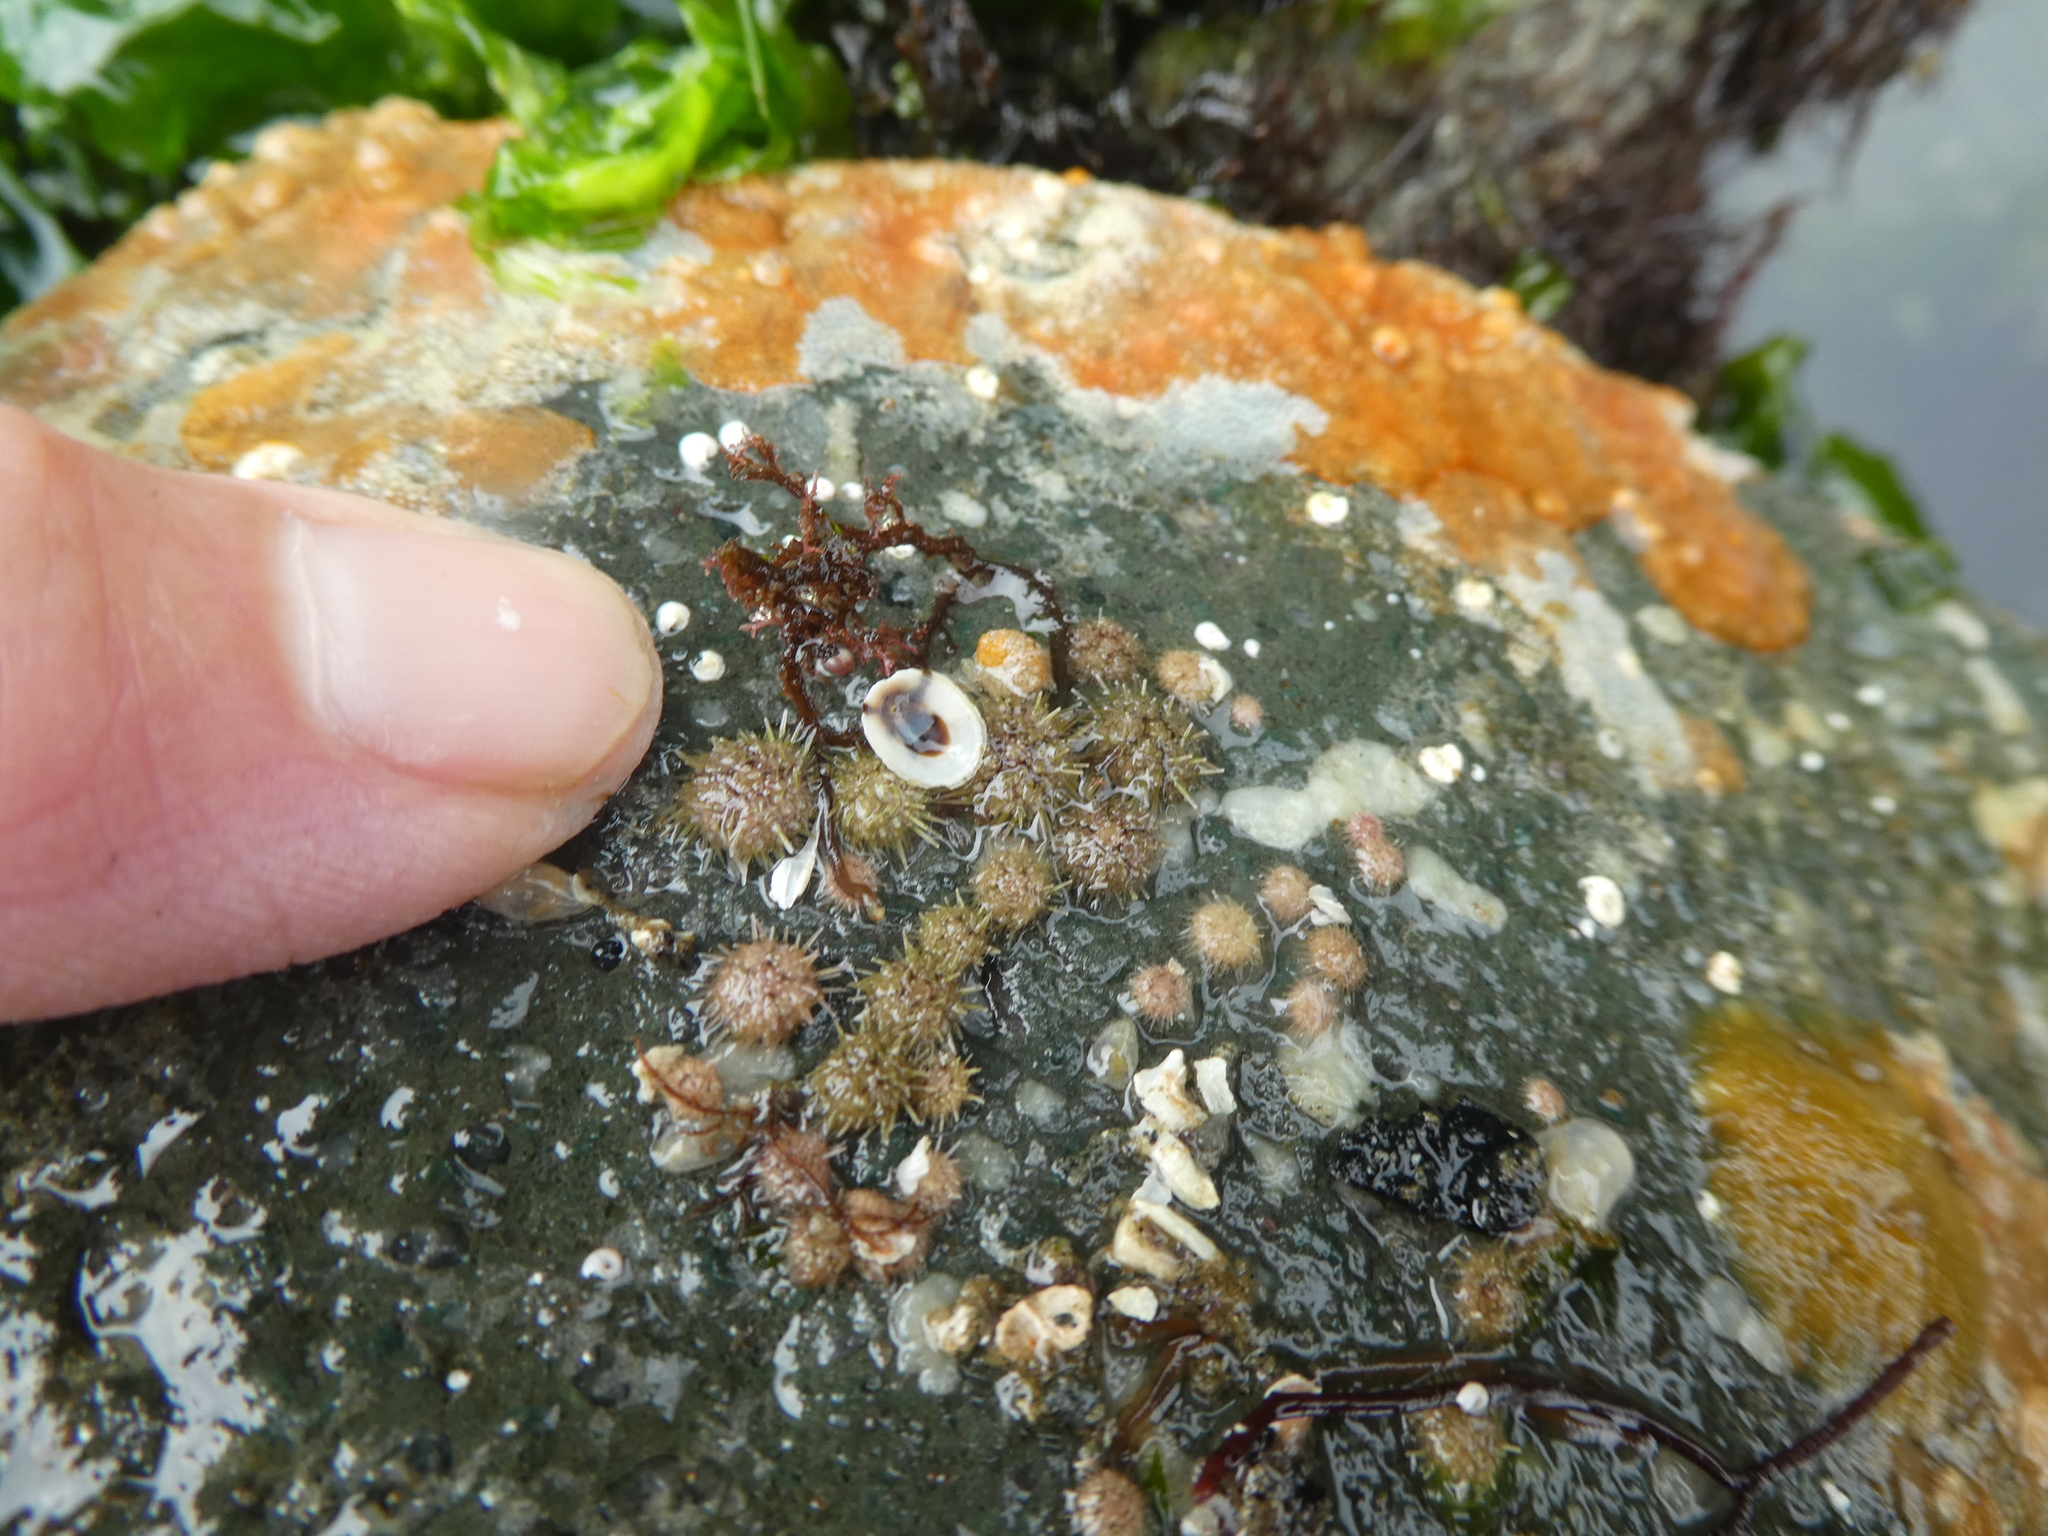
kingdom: Animalia
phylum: Echinodermata
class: Echinoidea
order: Camarodonta
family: Strongylocentrotidae
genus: Strongylocentrotus
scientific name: Strongylocentrotus droebachiensis
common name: Northern sea urchin
